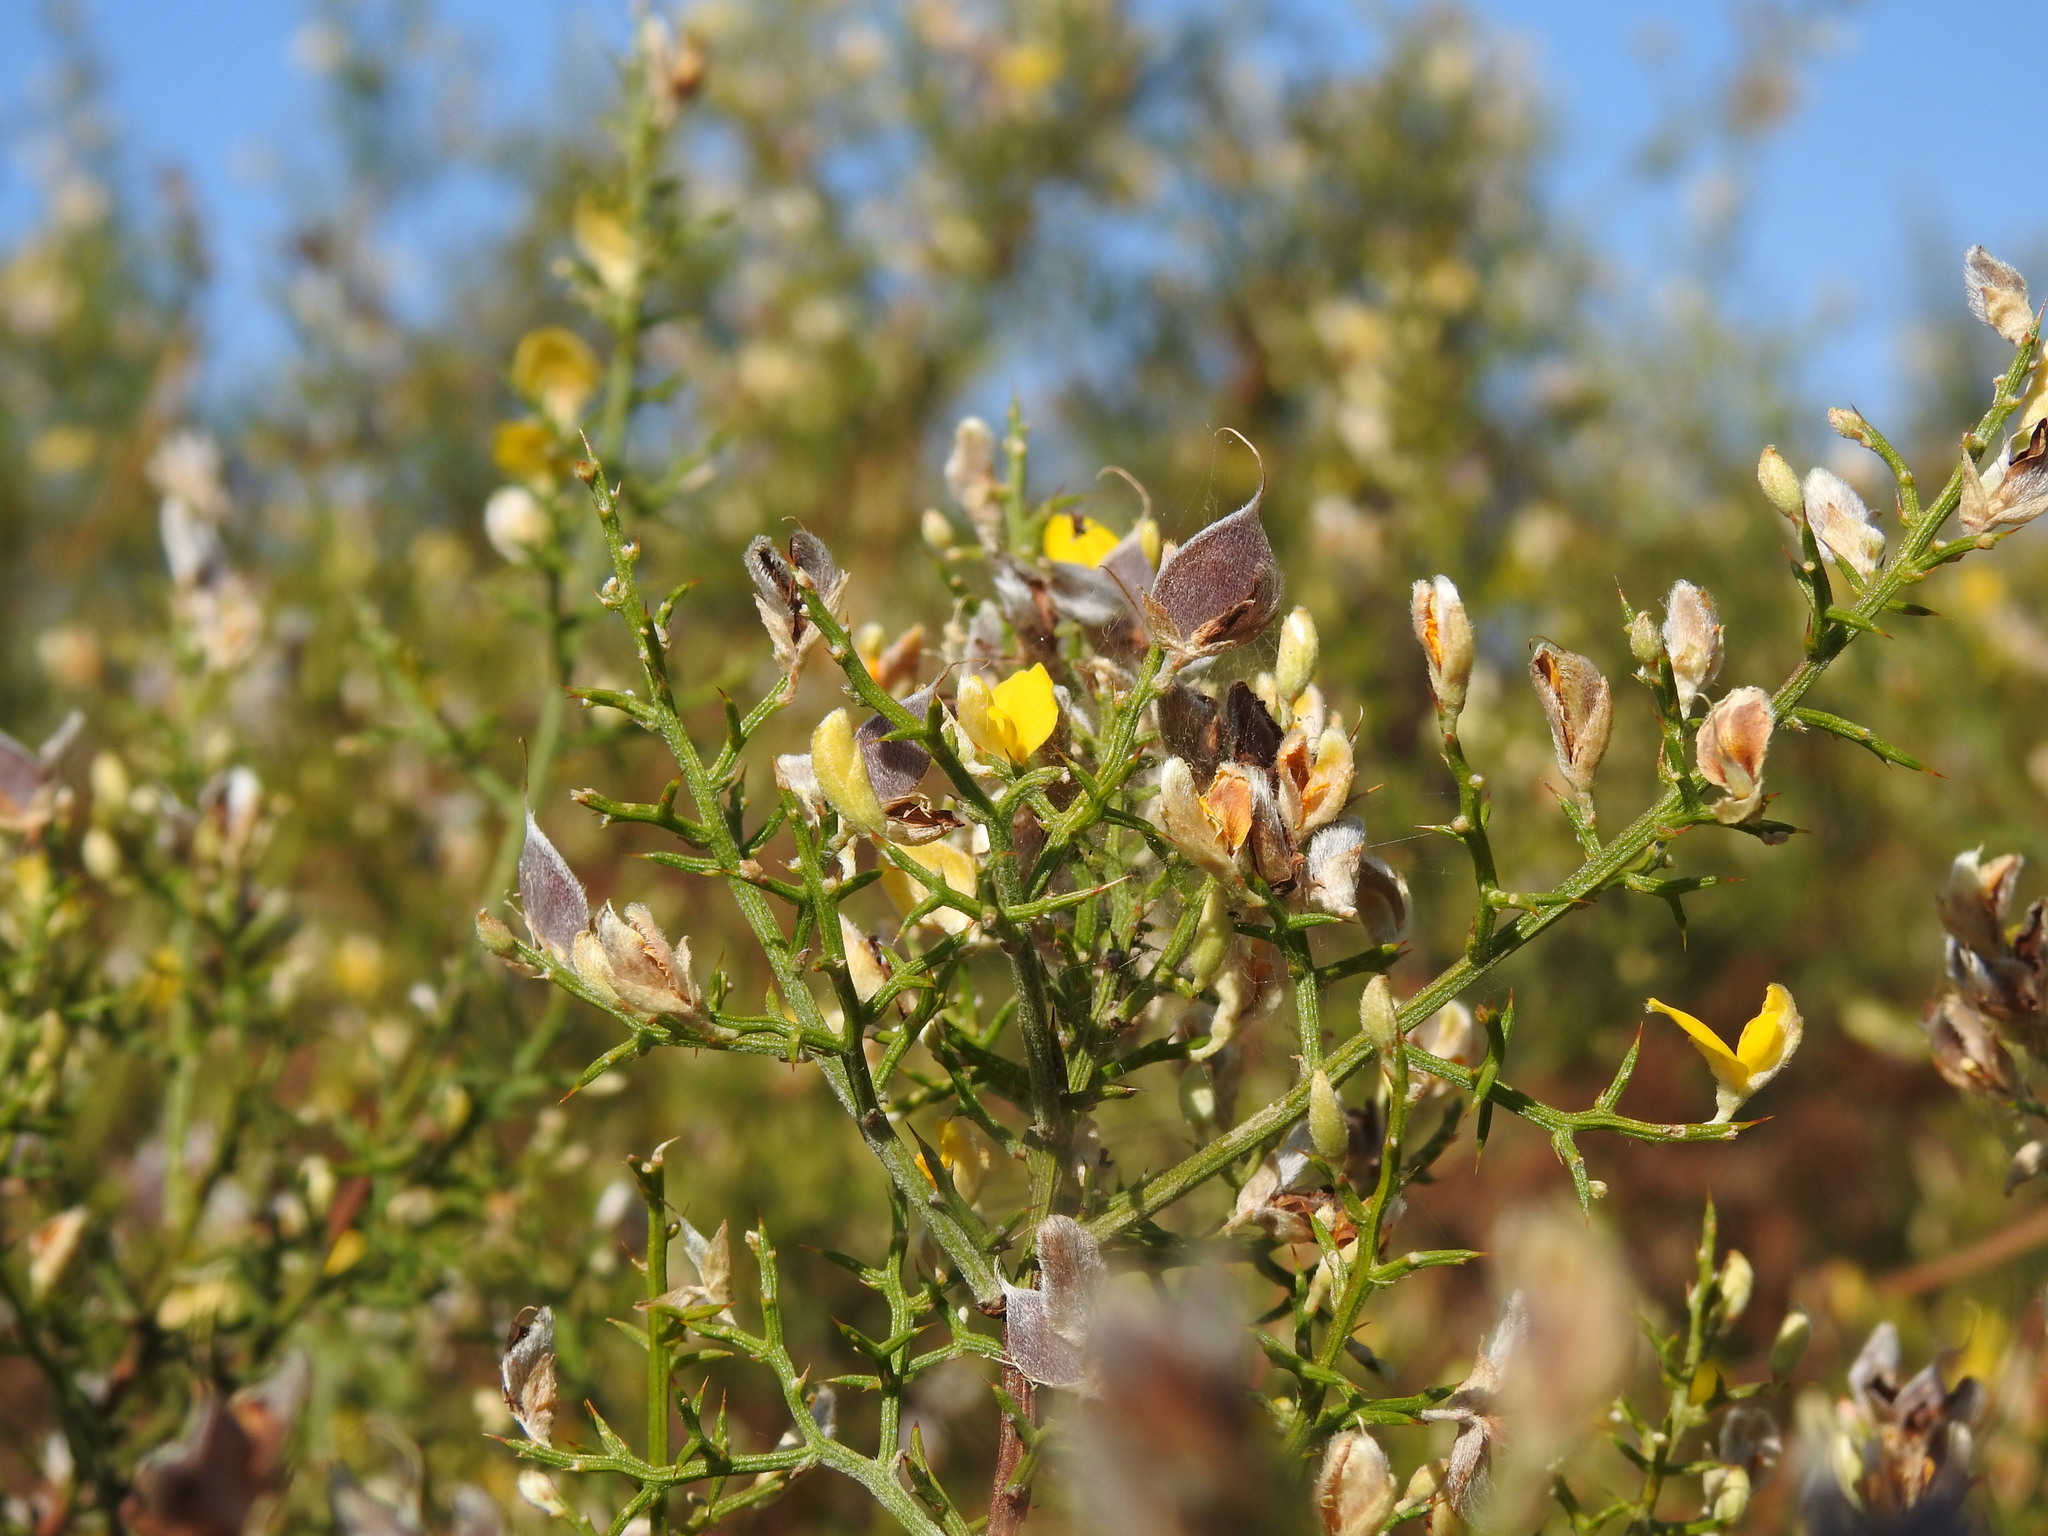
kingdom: Plantae
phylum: Tracheophyta
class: Magnoliopsida
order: Fabales
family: Fabaceae
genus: Stauracanthus
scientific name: Stauracanthus boivinii
